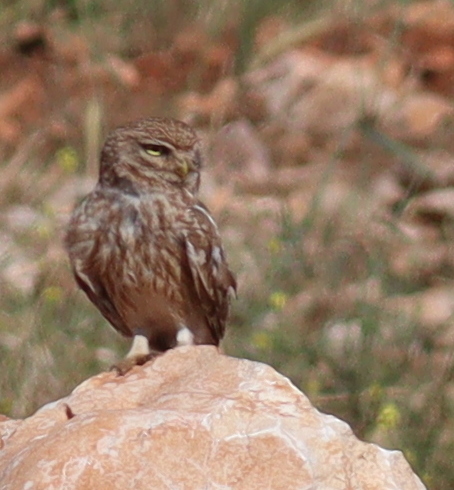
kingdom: Animalia
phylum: Chordata
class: Aves
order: Strigiformes
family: Strigidae
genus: Athene
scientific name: Athene noctua
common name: Little owl
